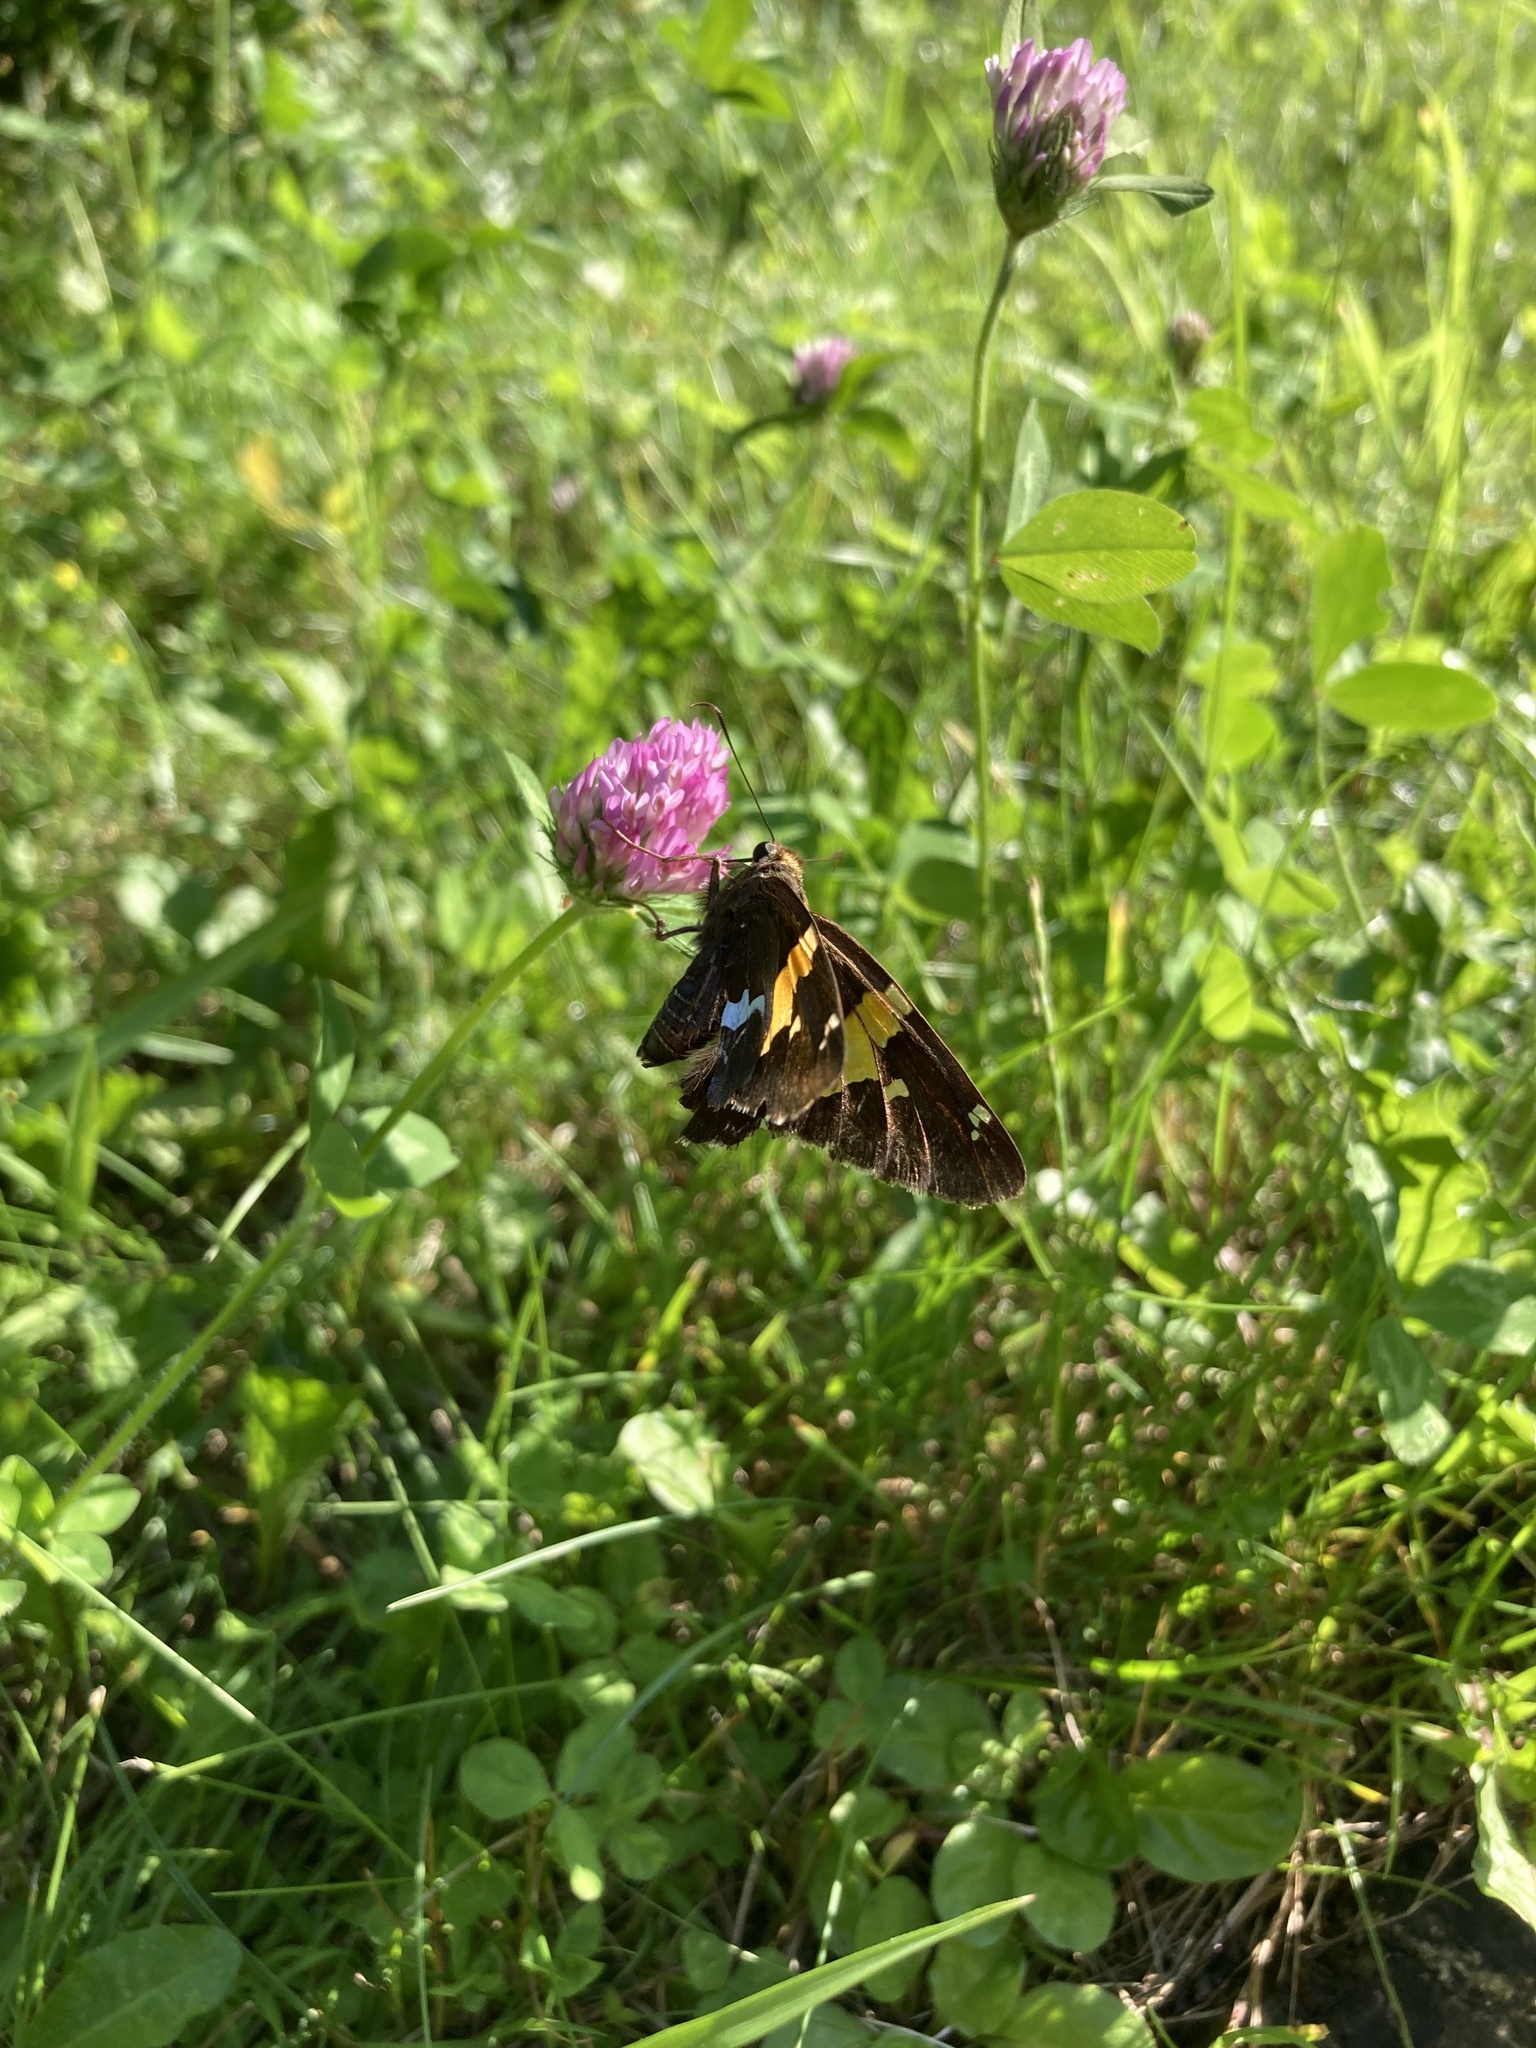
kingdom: Animalia
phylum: Arthropoda
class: Insecta
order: Lepidoptera
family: Hesperiidae
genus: Epargyreus
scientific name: Epargyreus clarus
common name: Silver-spotted skipper
